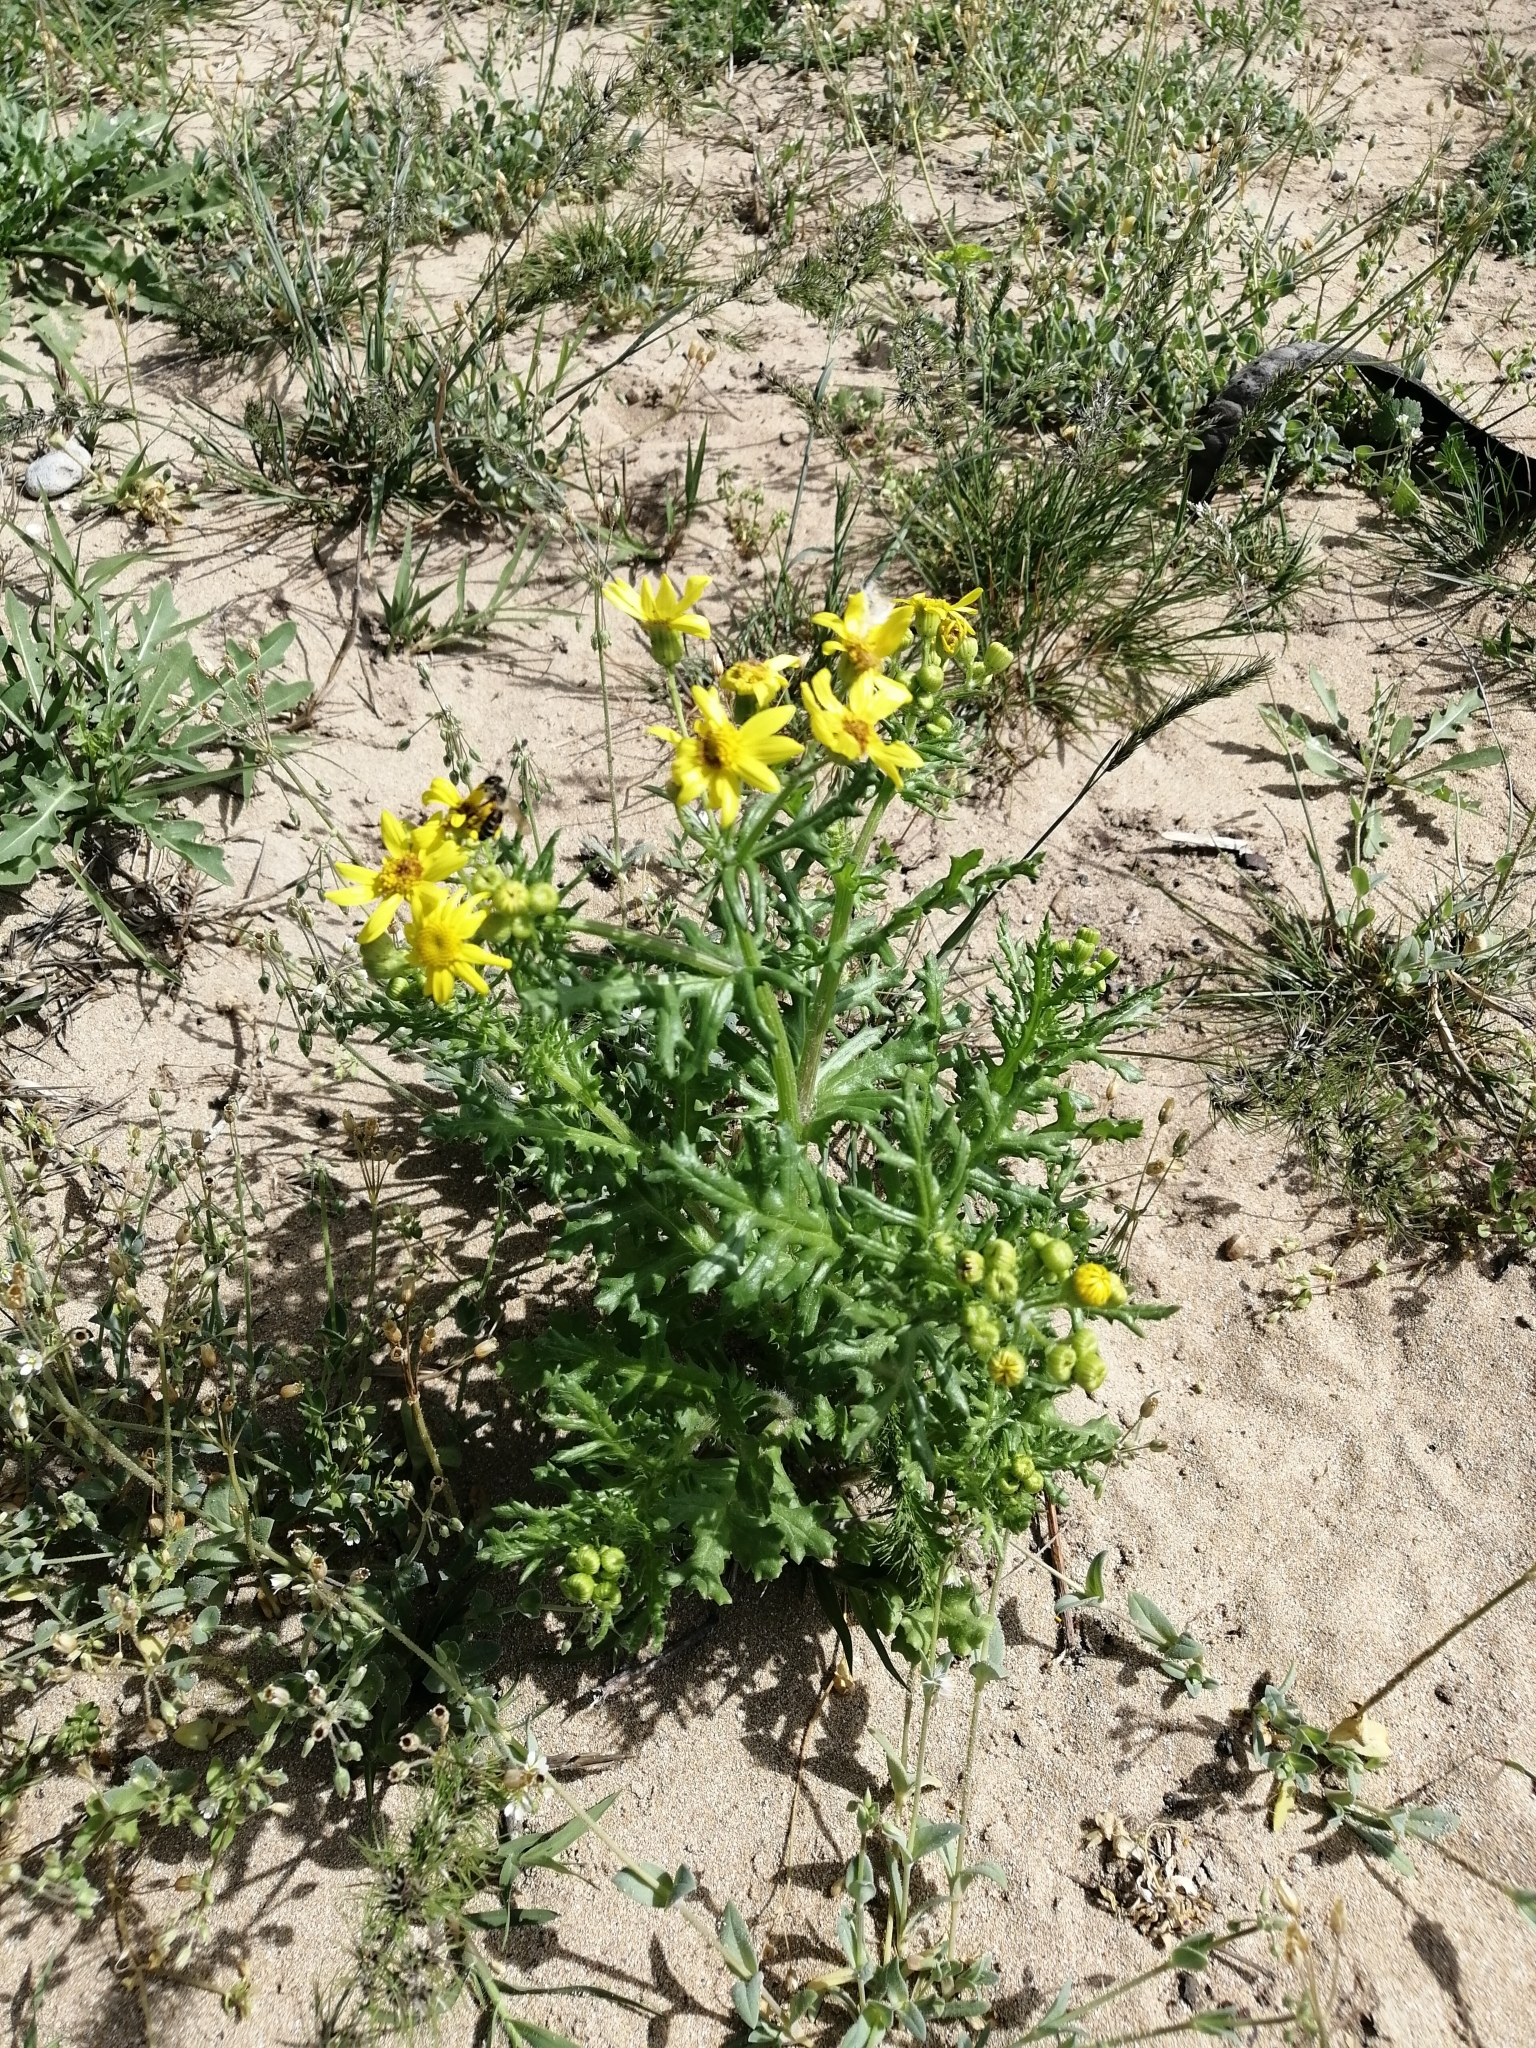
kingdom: Plantae
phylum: Tracheophyta
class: Magnoliopsida
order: Asterales
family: Asteraceae
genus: Senecio
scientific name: Senecio vernalis
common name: Eastern groundsel
